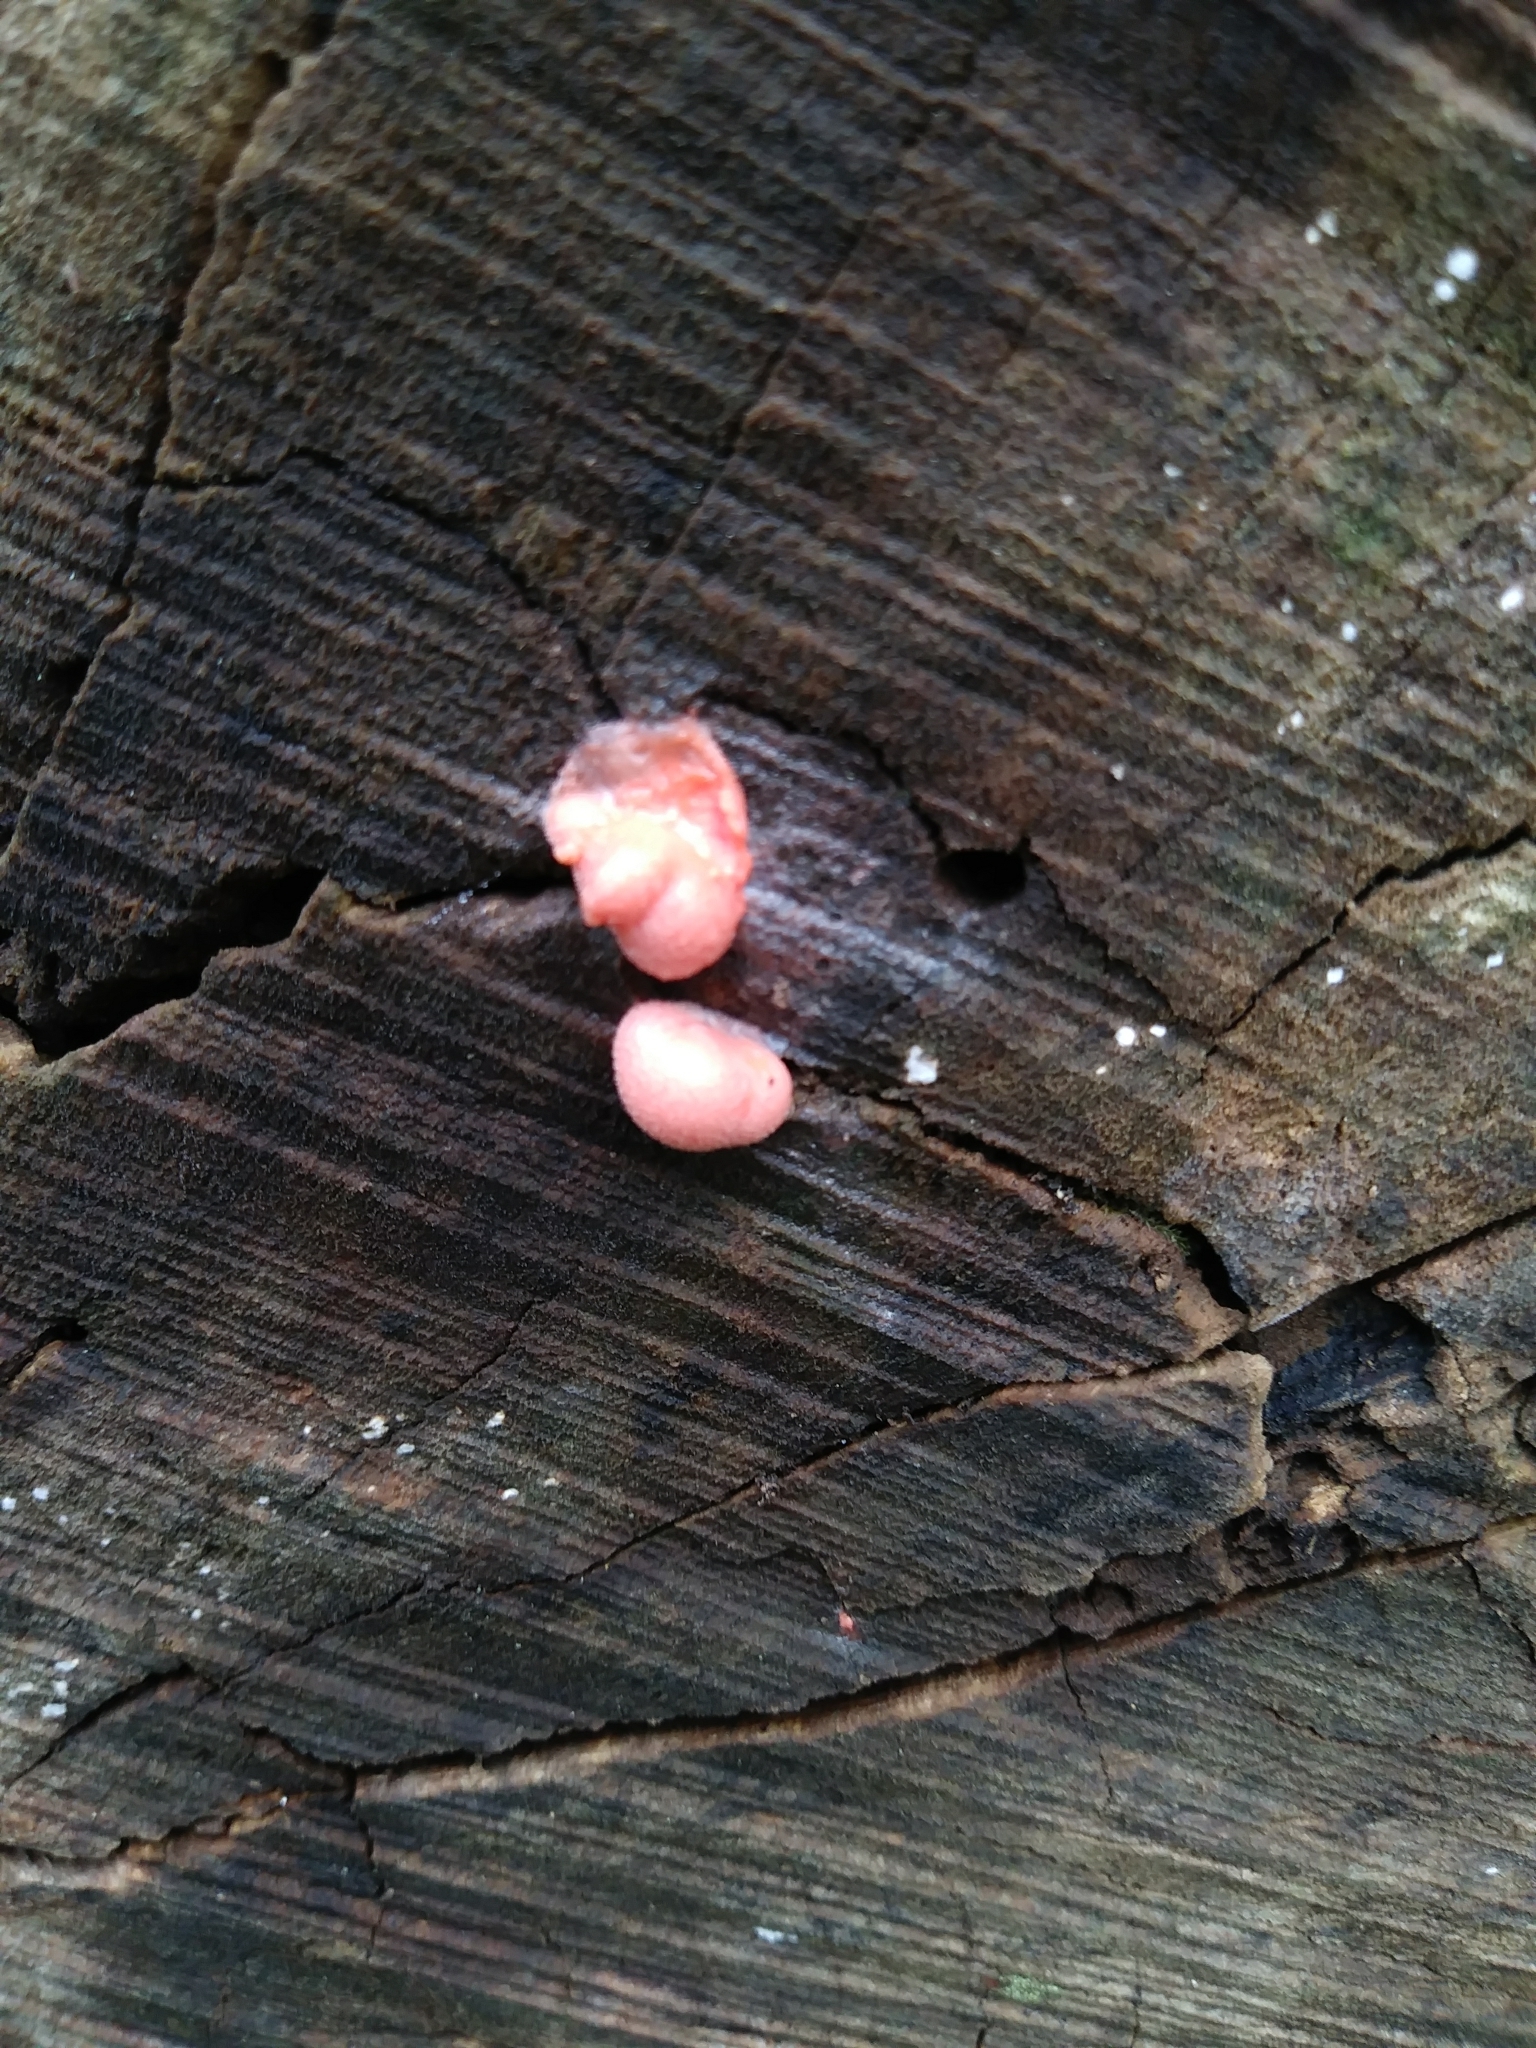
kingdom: Protozoa
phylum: Mycetozoa
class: Myxomycetes
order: Cribrariales
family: Tubiferaceae
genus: Lycogala
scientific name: Lycogala epidendrum
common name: Wolf's milk
